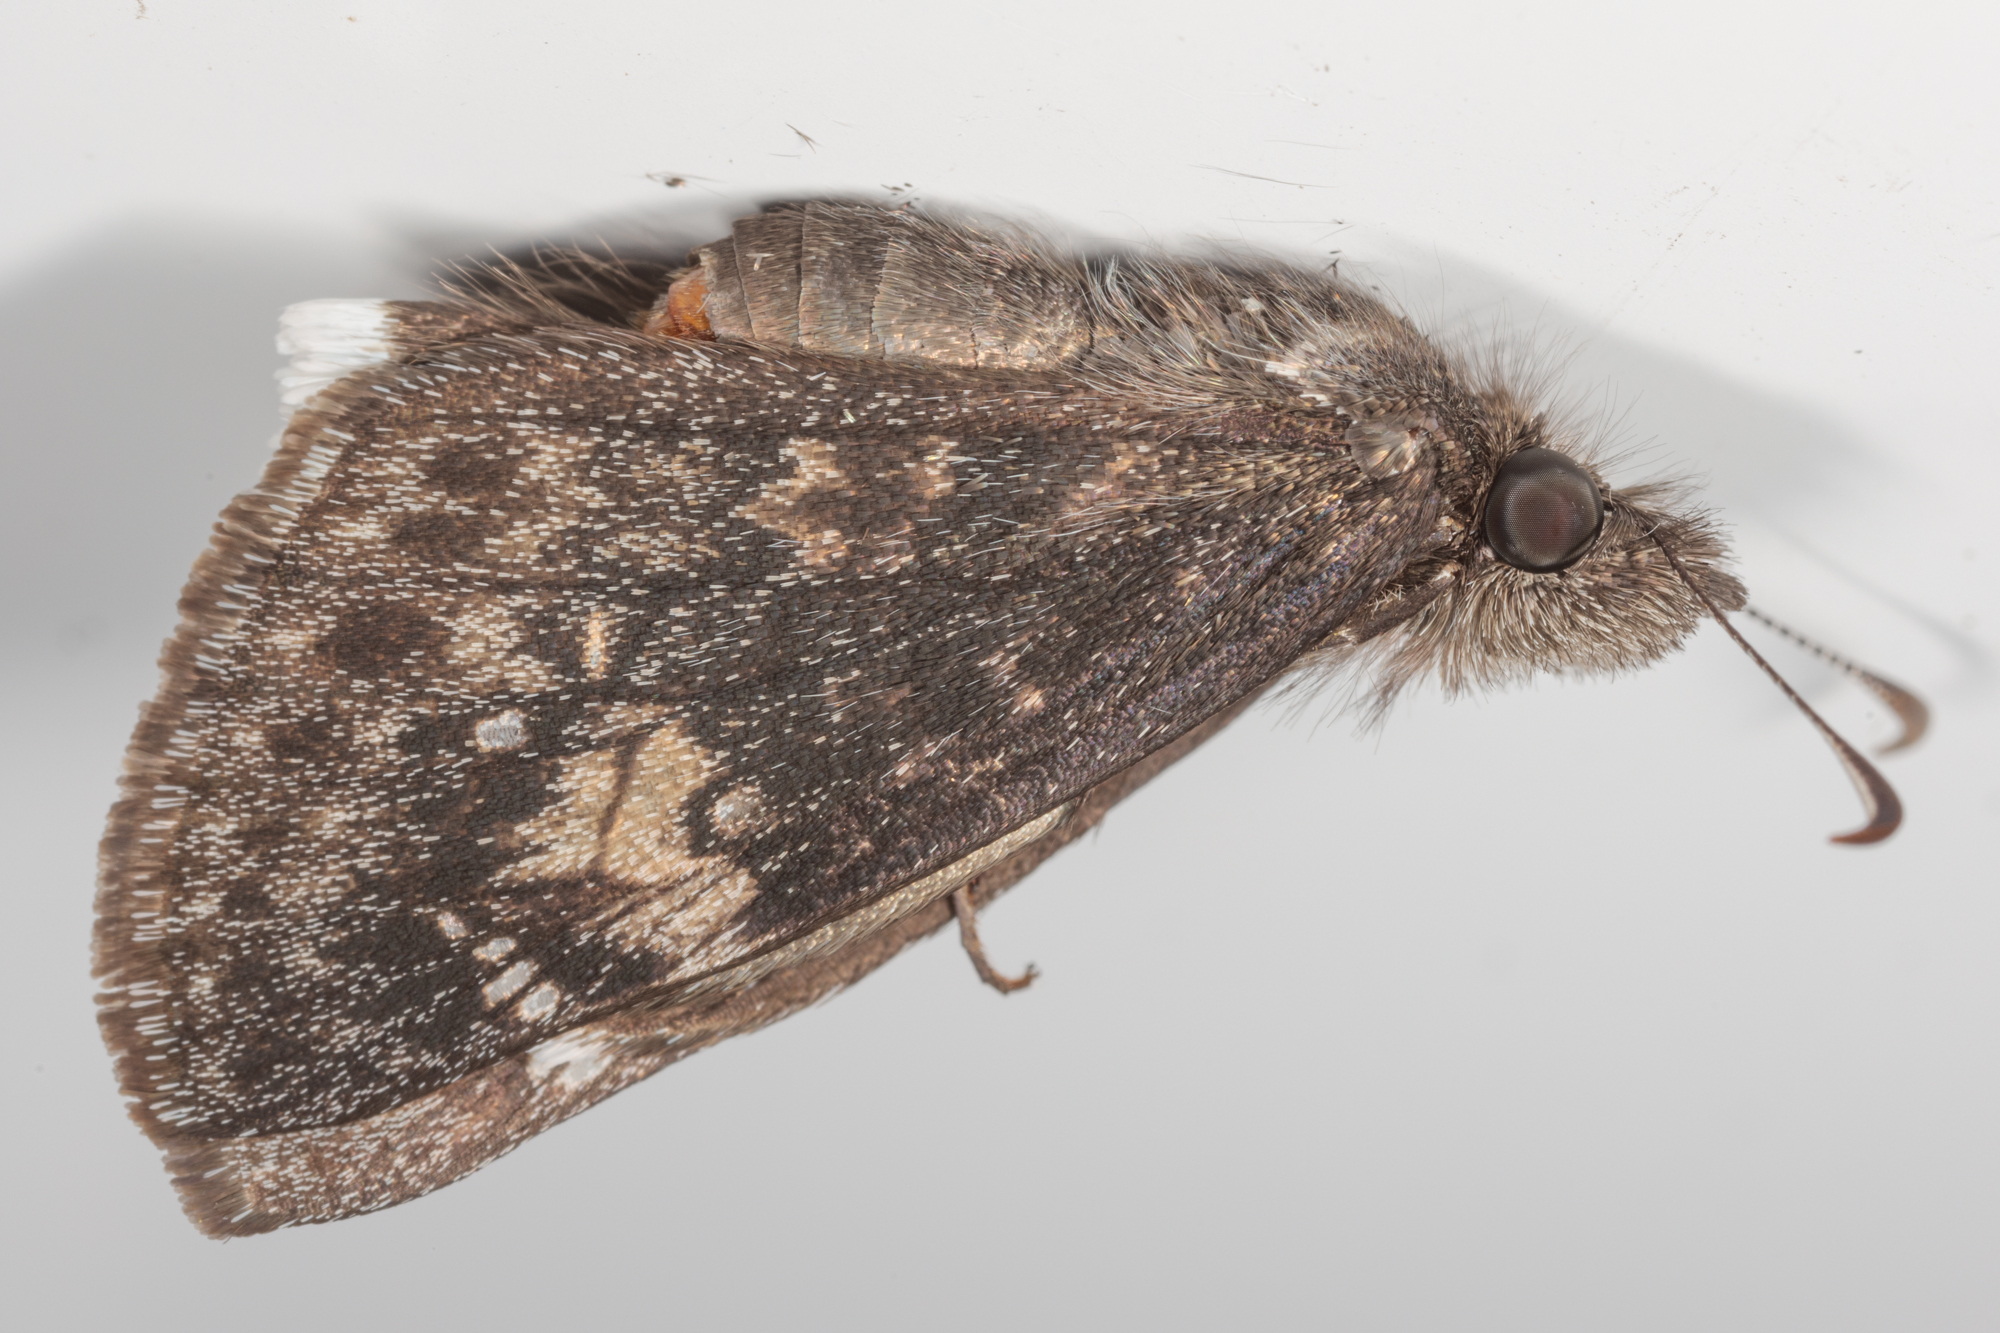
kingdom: Animalia
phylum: Arthropoda
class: Insecta
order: Lepidoptera
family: Hesperiidae
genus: Erynnis
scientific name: Erynnis funeralis
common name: Funereal duskywing
